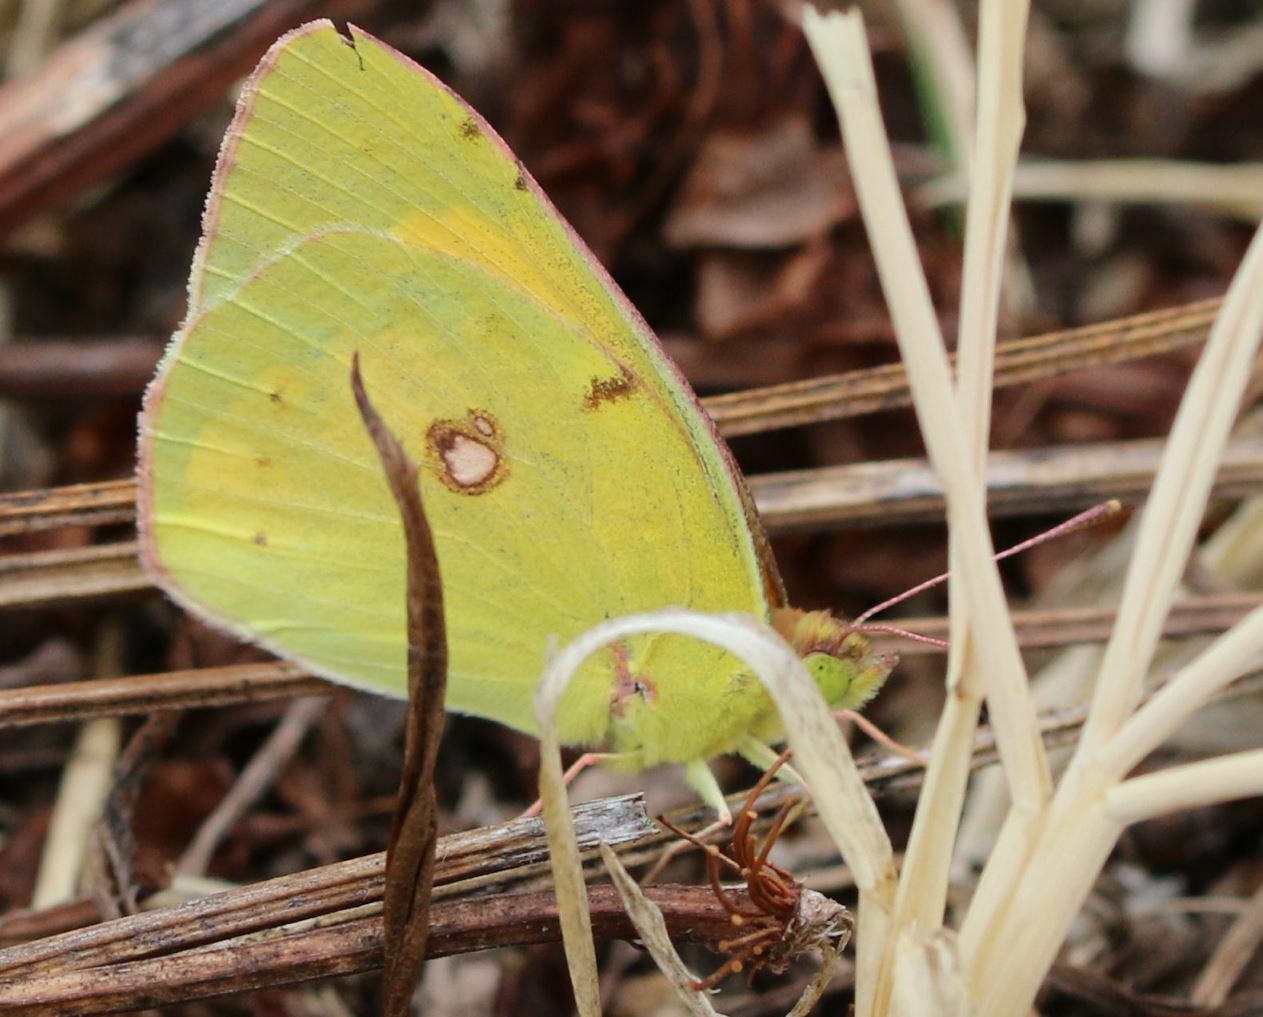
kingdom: Animalia
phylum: Arthropoda
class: Insecta
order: Lepidoptera
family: Pieridae
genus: Colias
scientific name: Colias croceus
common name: Clouded yellow
